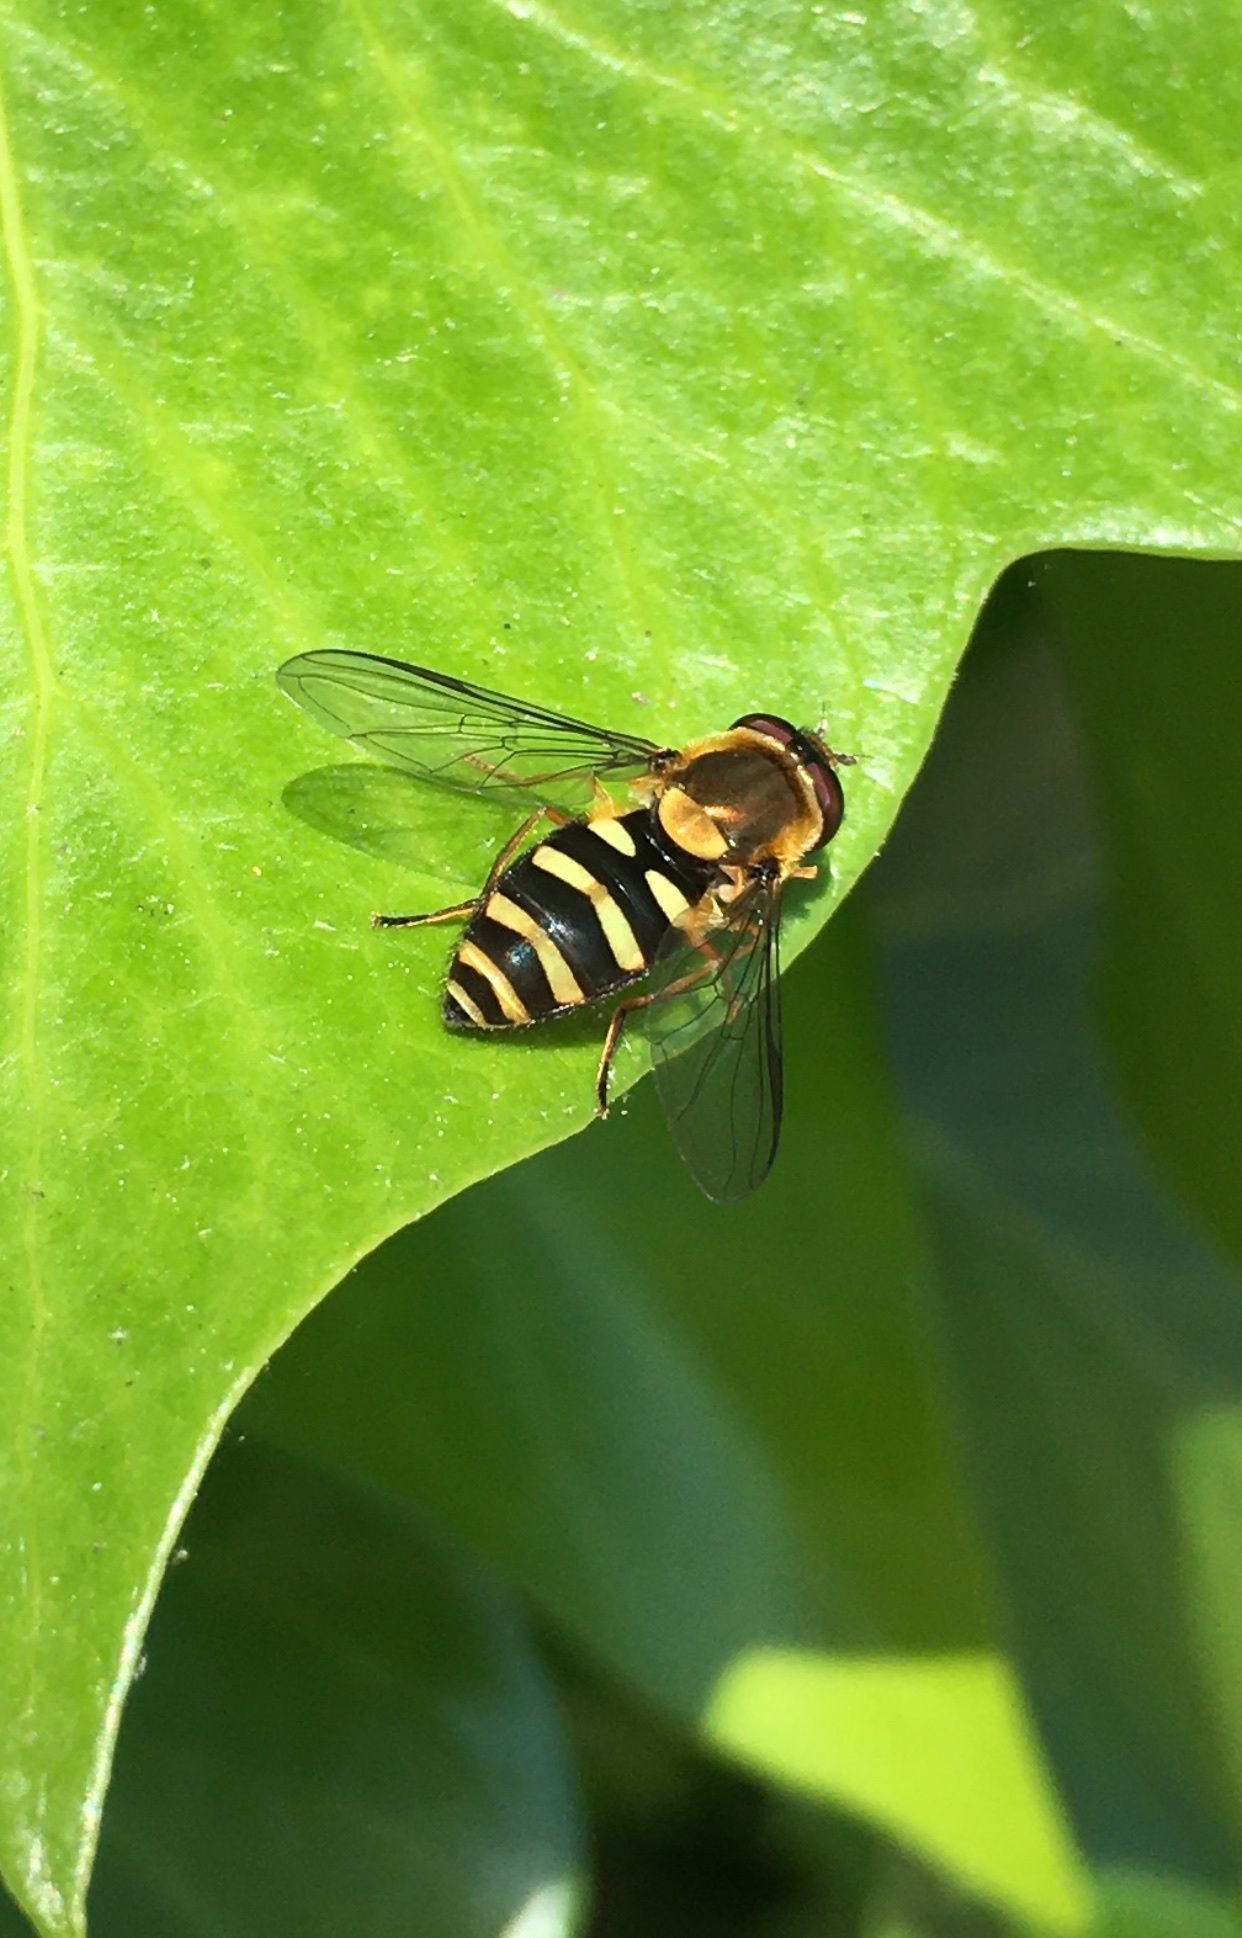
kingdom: Animalia
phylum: Arthropoda
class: Insecta
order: Diptera
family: Syrphidae
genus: Syrphus
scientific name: Syrphus opinator
